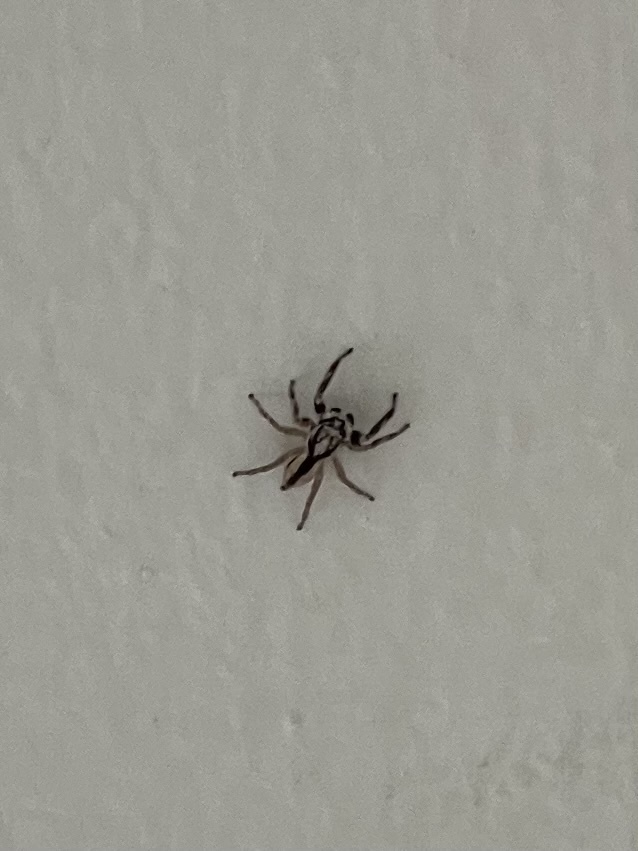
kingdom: Animalia
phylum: Arthropoda
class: Arachnida
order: Araneae
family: Salticidae
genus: Menemerus
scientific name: Menemerus bivittatus
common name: Gray wall jumper
